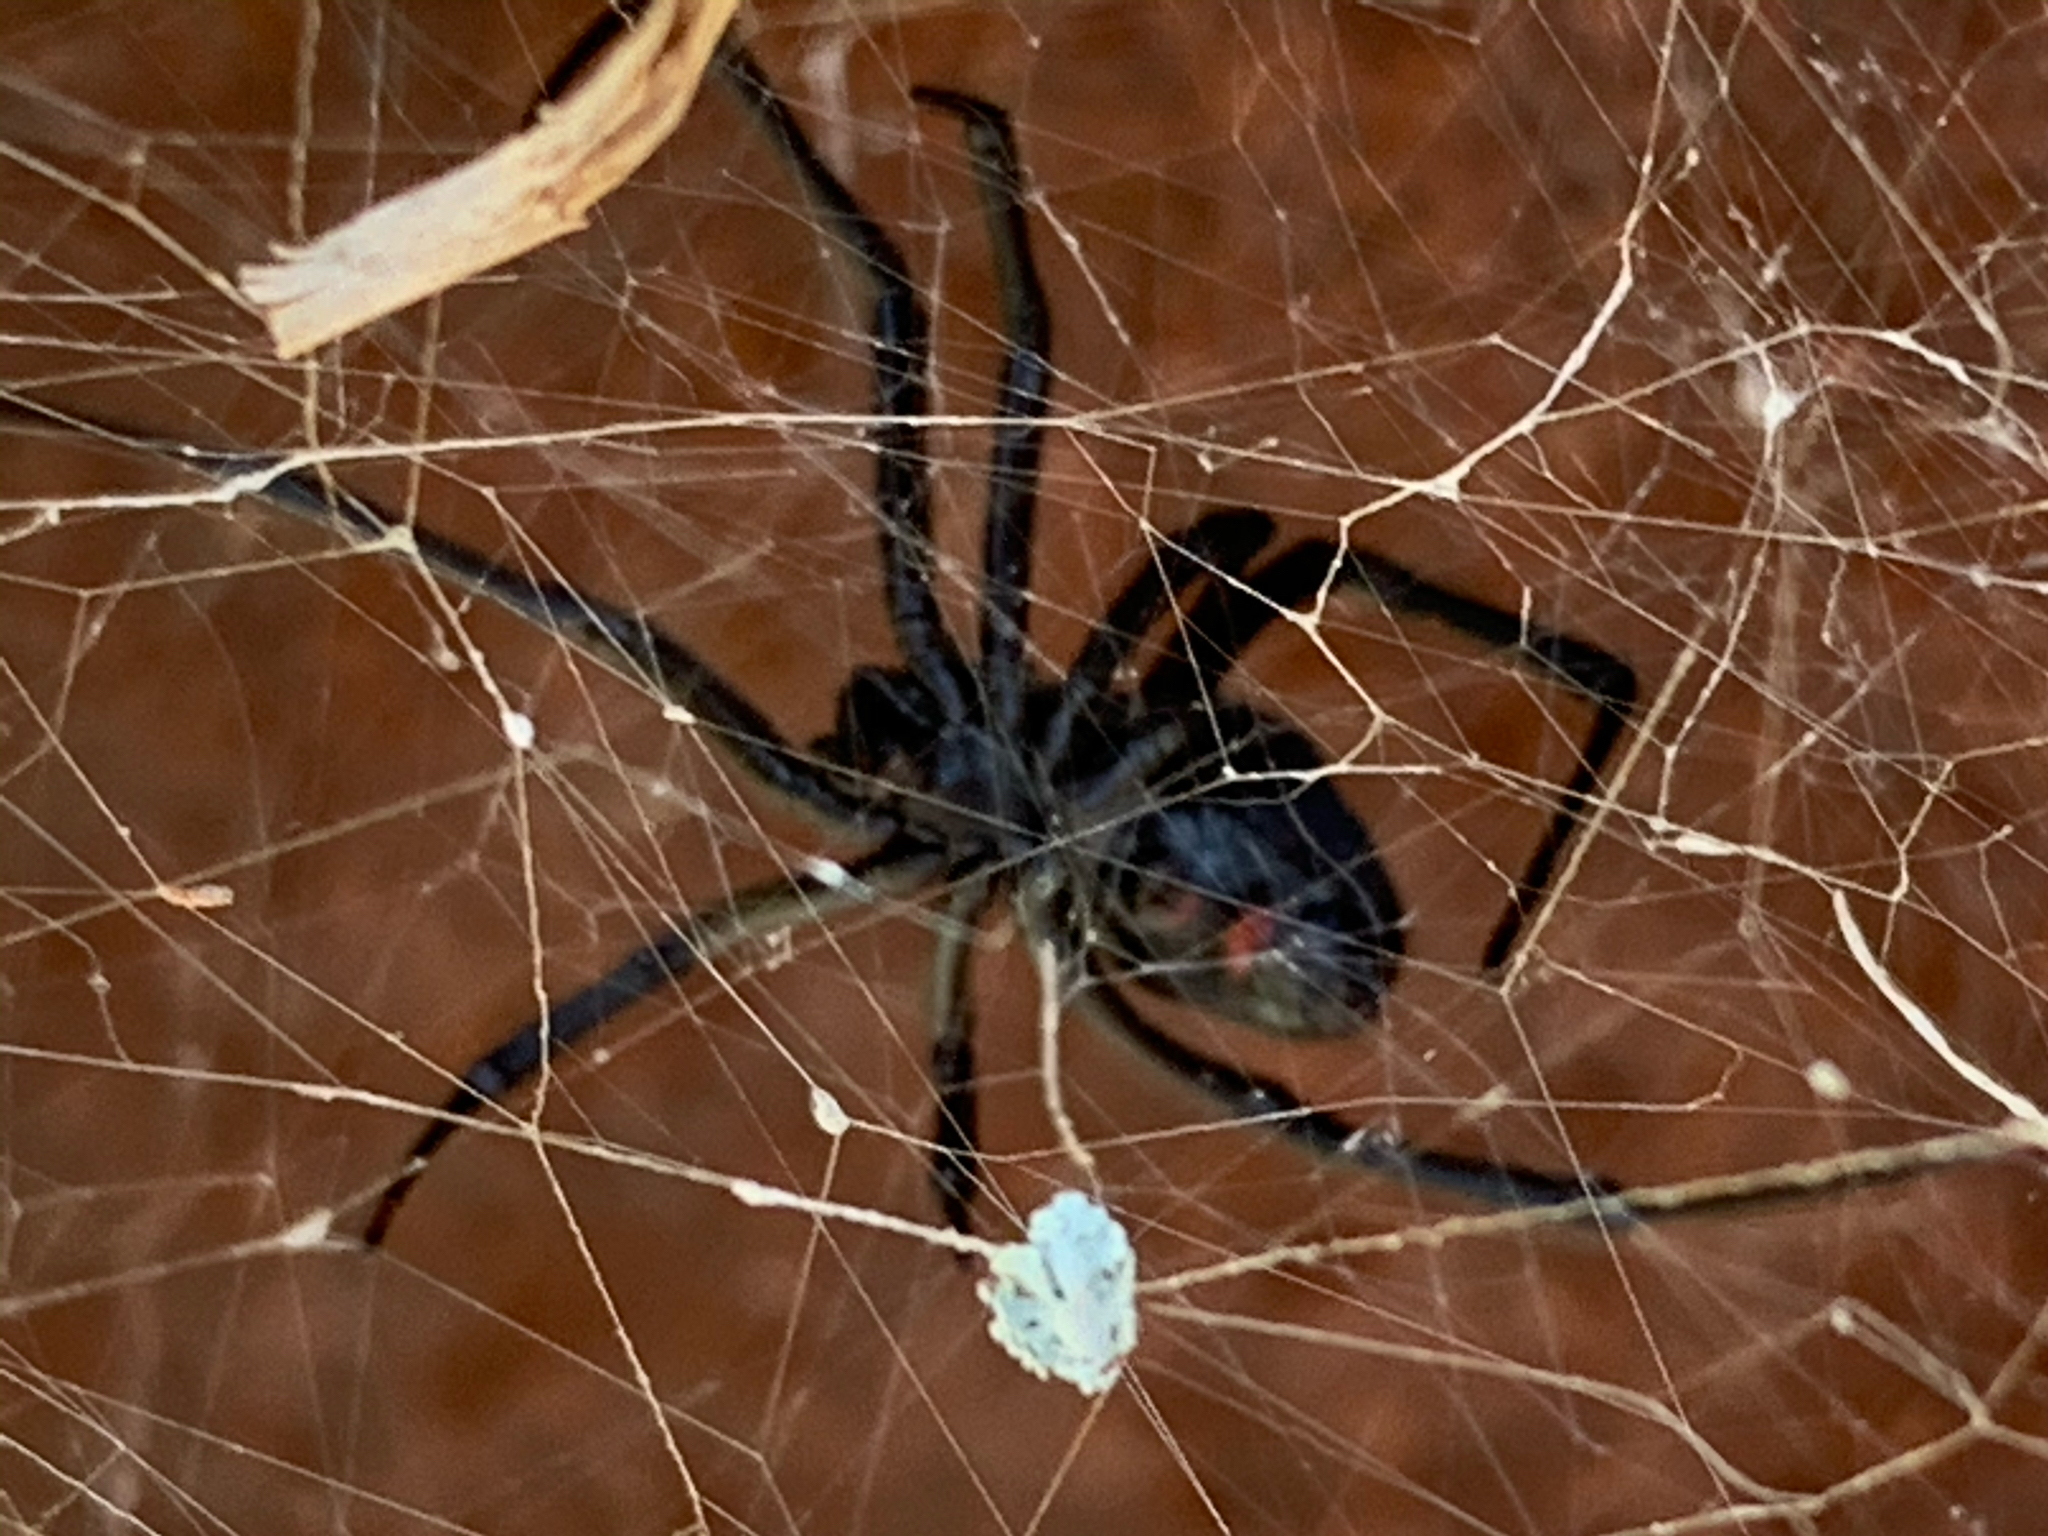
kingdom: Animalia
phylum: Arthropoda
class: Arachnida
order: Araneae
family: Theridiidae
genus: Latrodectus
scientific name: Latrodectus variolus
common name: Northern black widow
